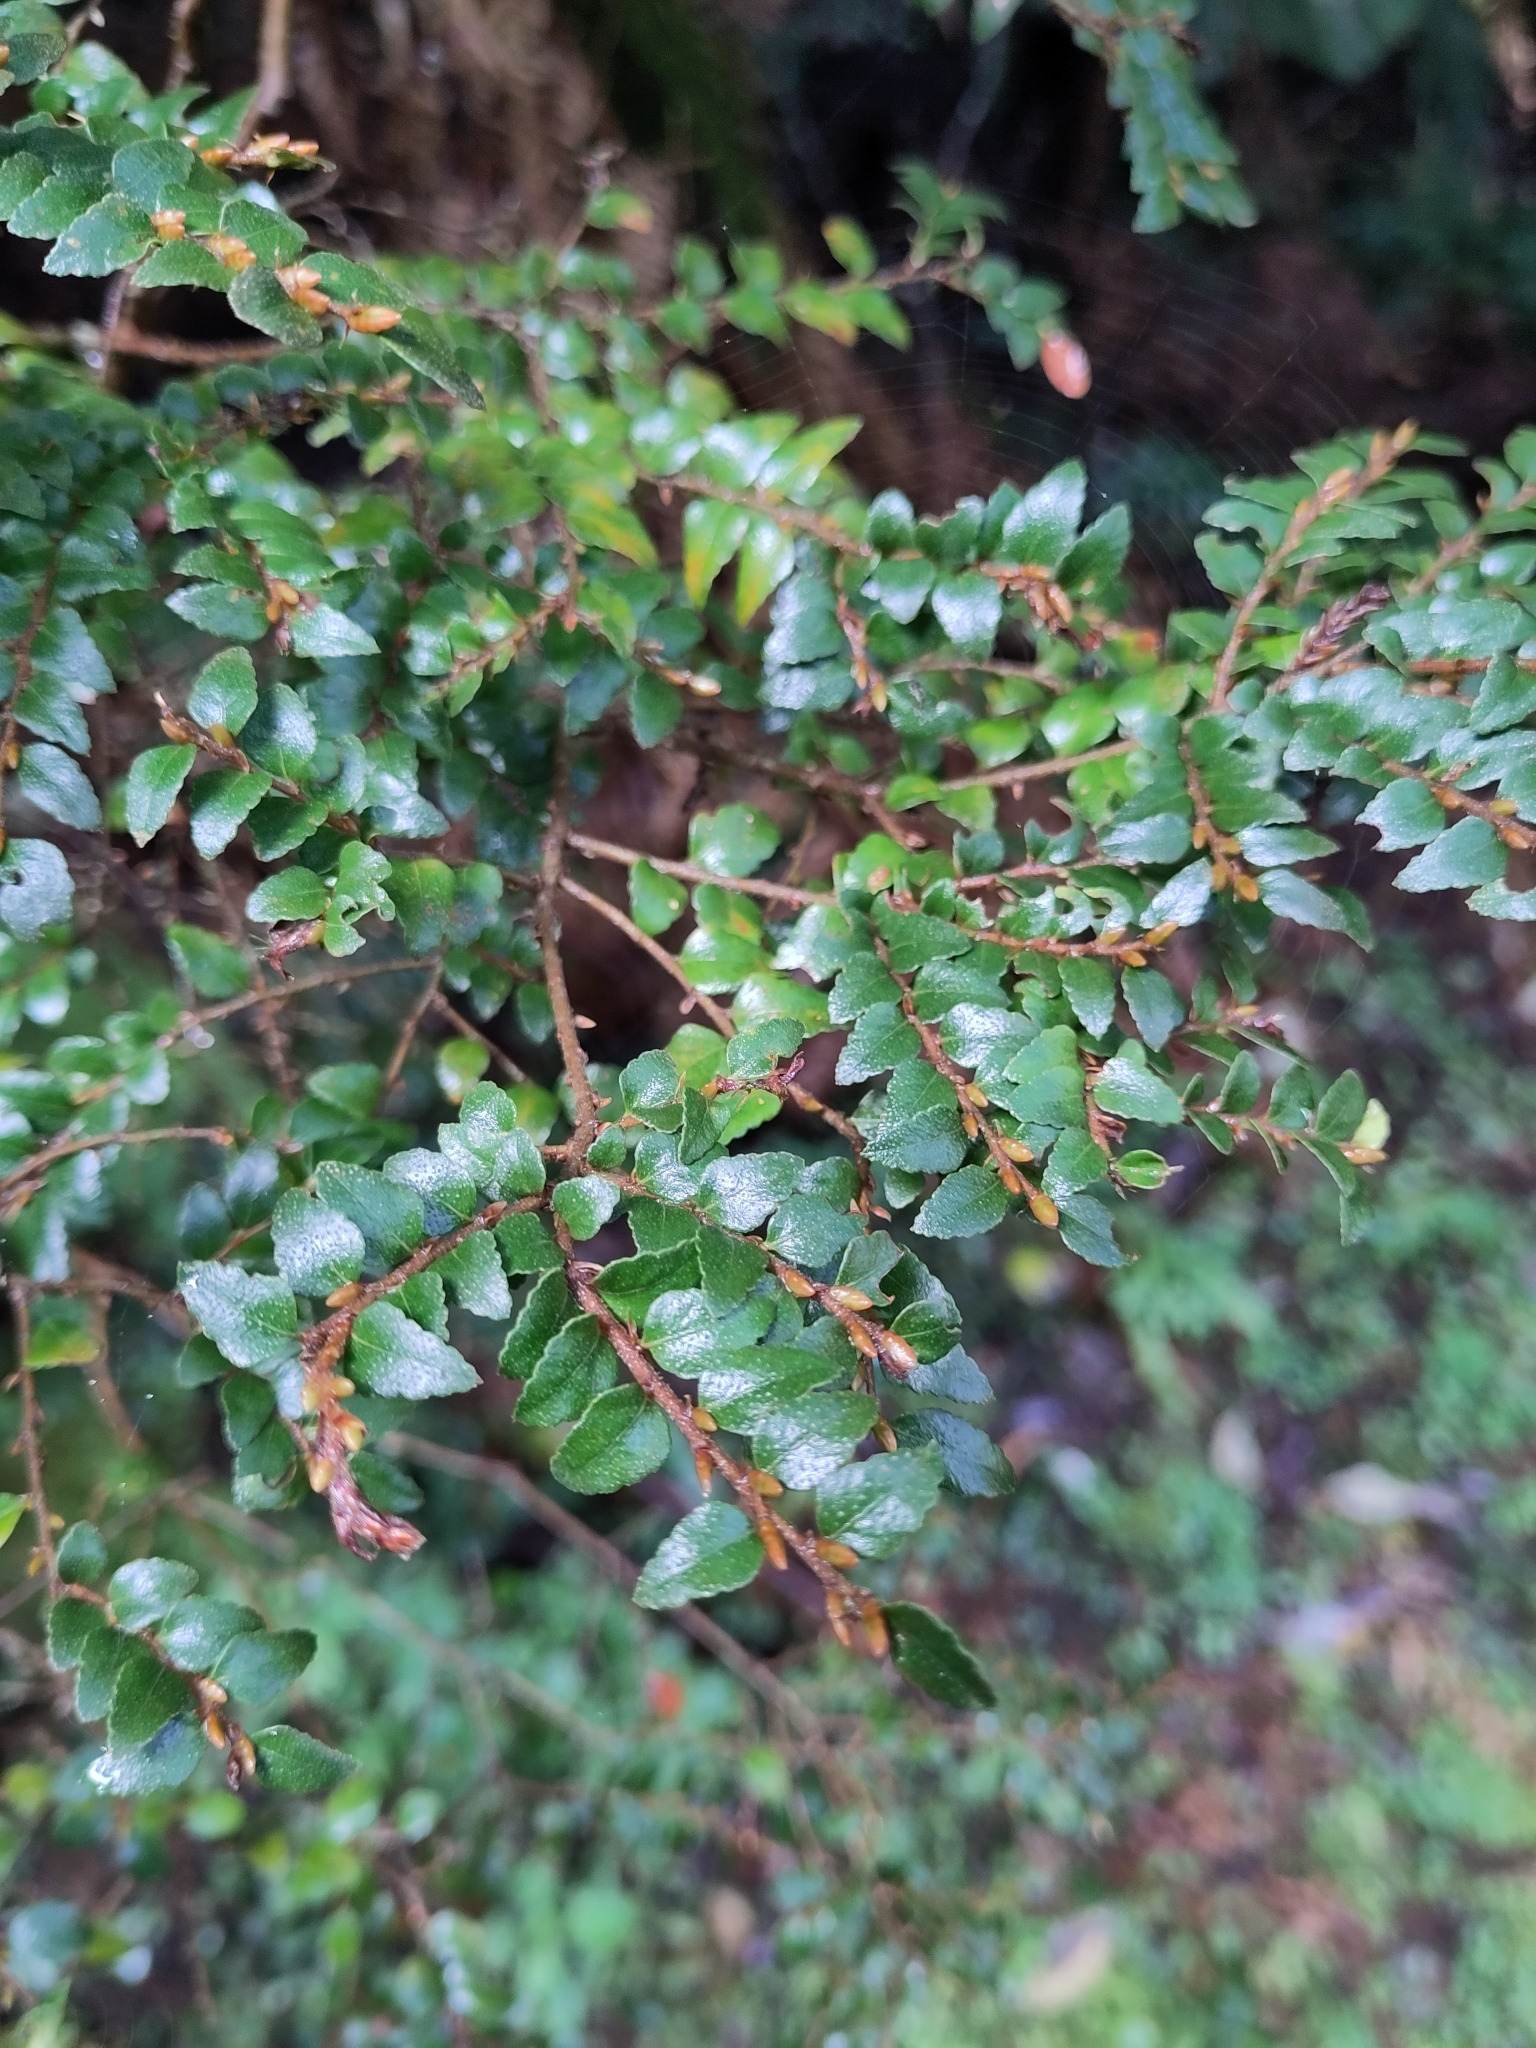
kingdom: Plantae
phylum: Tracheophyta
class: Magnoliopsida
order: Fagales
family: Nothofagaceae
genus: Nothofagus
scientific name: Nothofagus cunninghamii
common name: Myrtle beech
